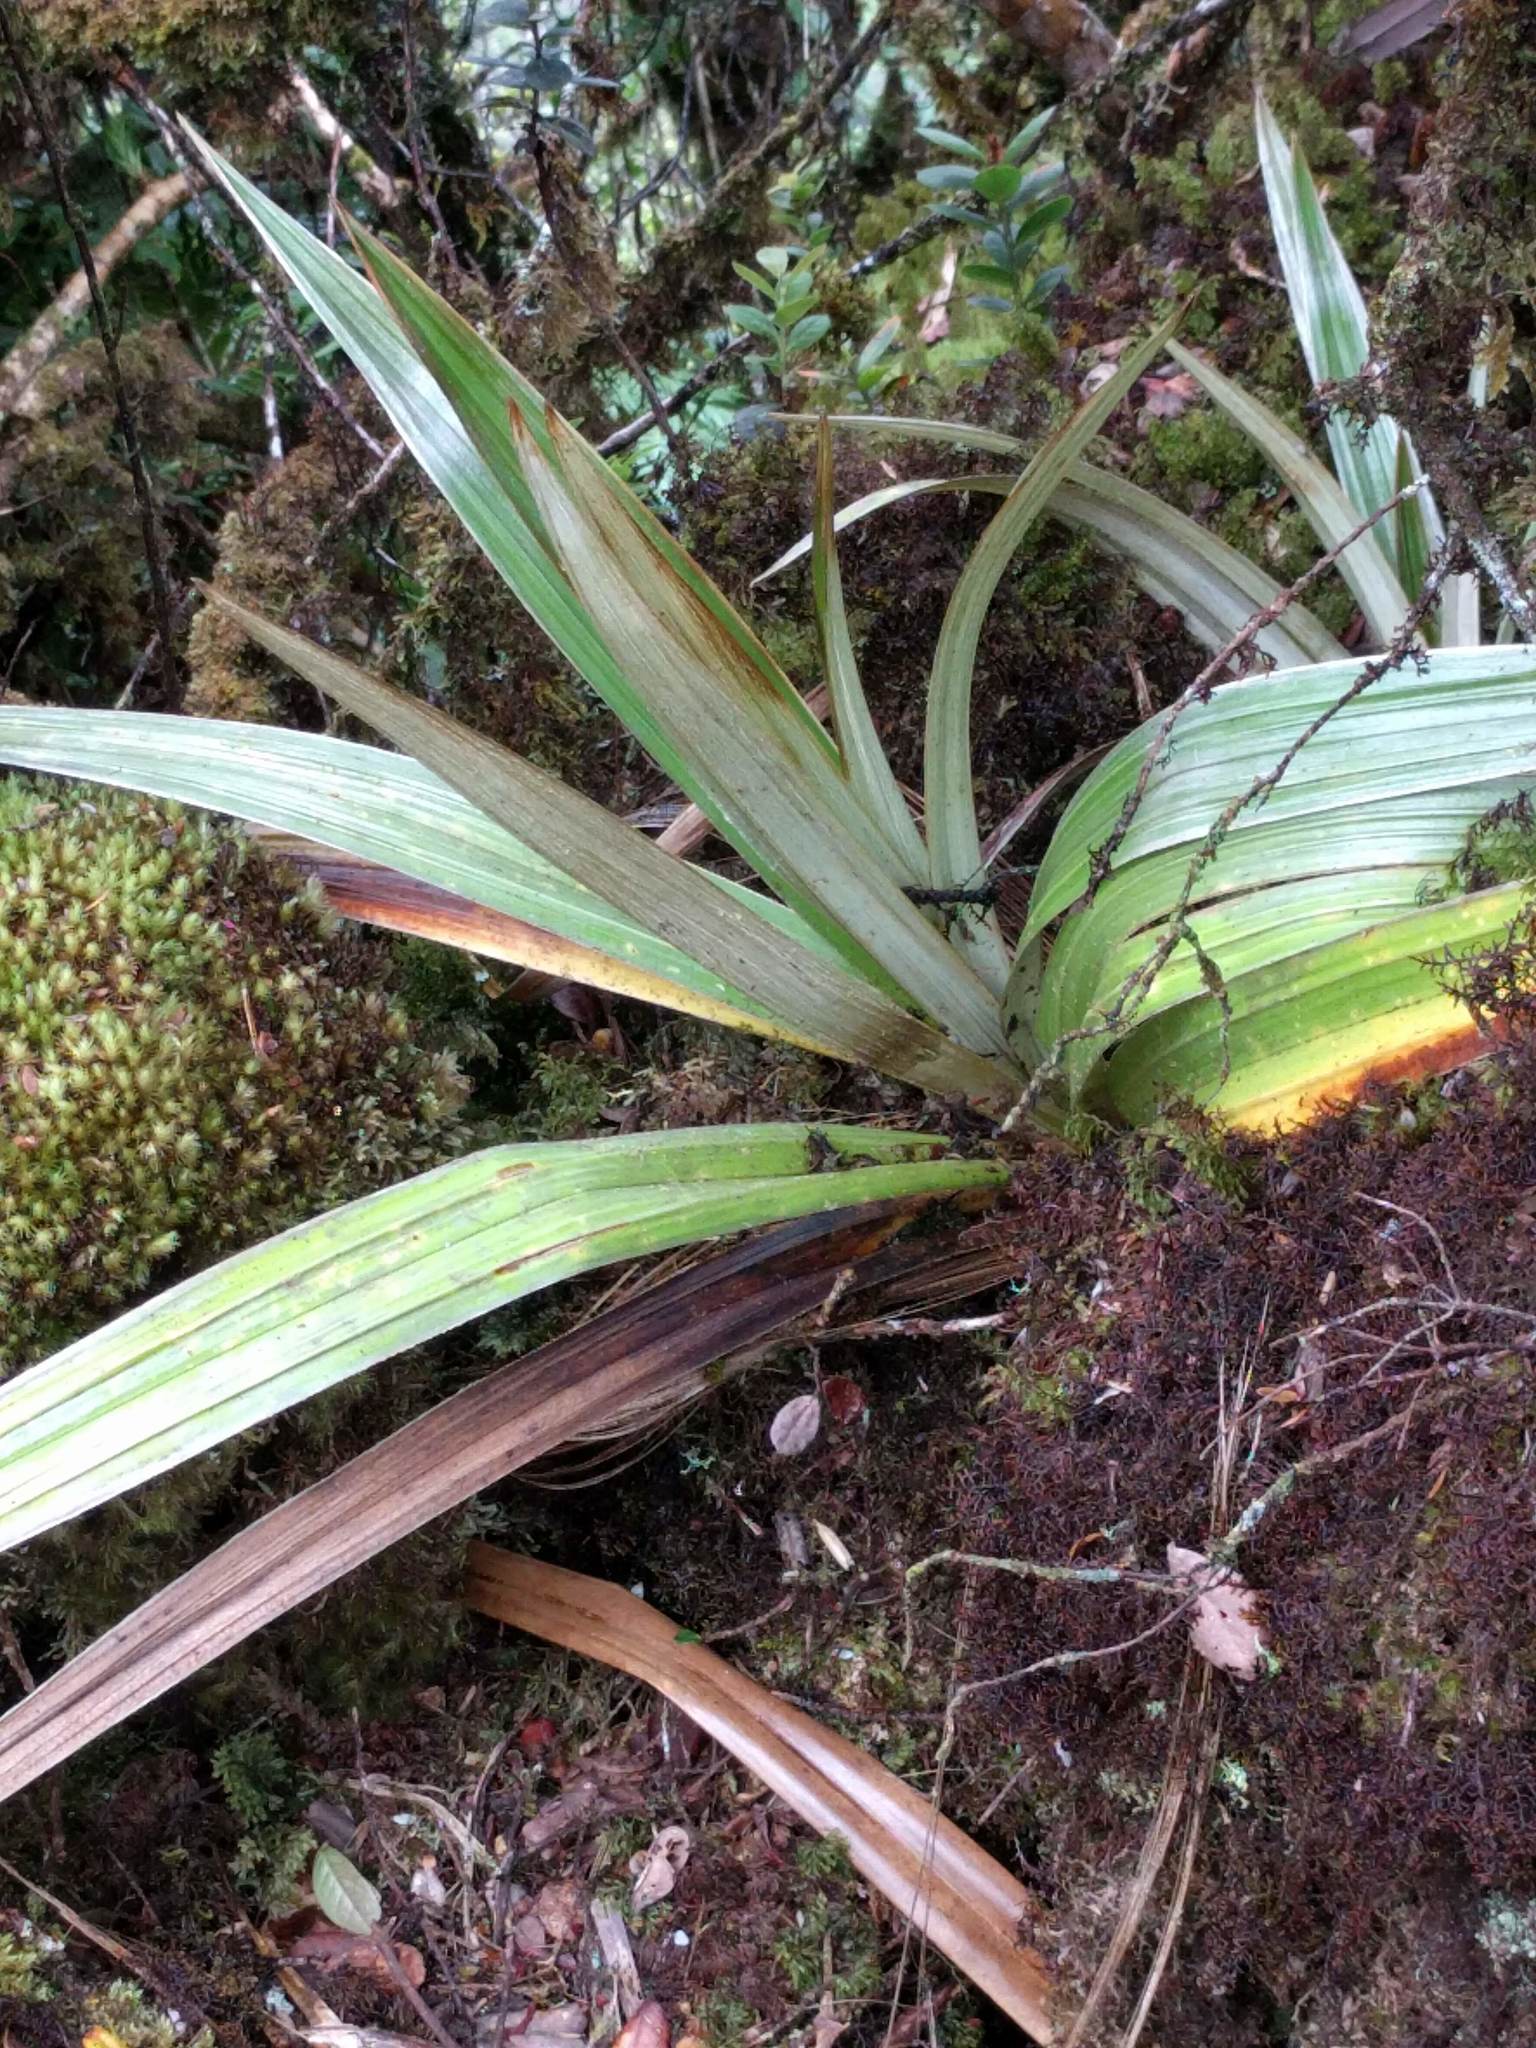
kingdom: Plantae
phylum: Tracheophyta
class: Liliopsida
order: Asparagales
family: Asteliaceae
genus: Astelia
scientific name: Astelia menziesiana
